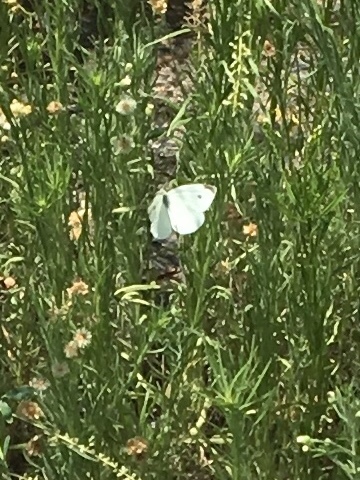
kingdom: Animalia
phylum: Arthropoda
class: Insecta
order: Lepidoptera
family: Pieridae
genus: Pieris
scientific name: Pieris rapae
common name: Small white
